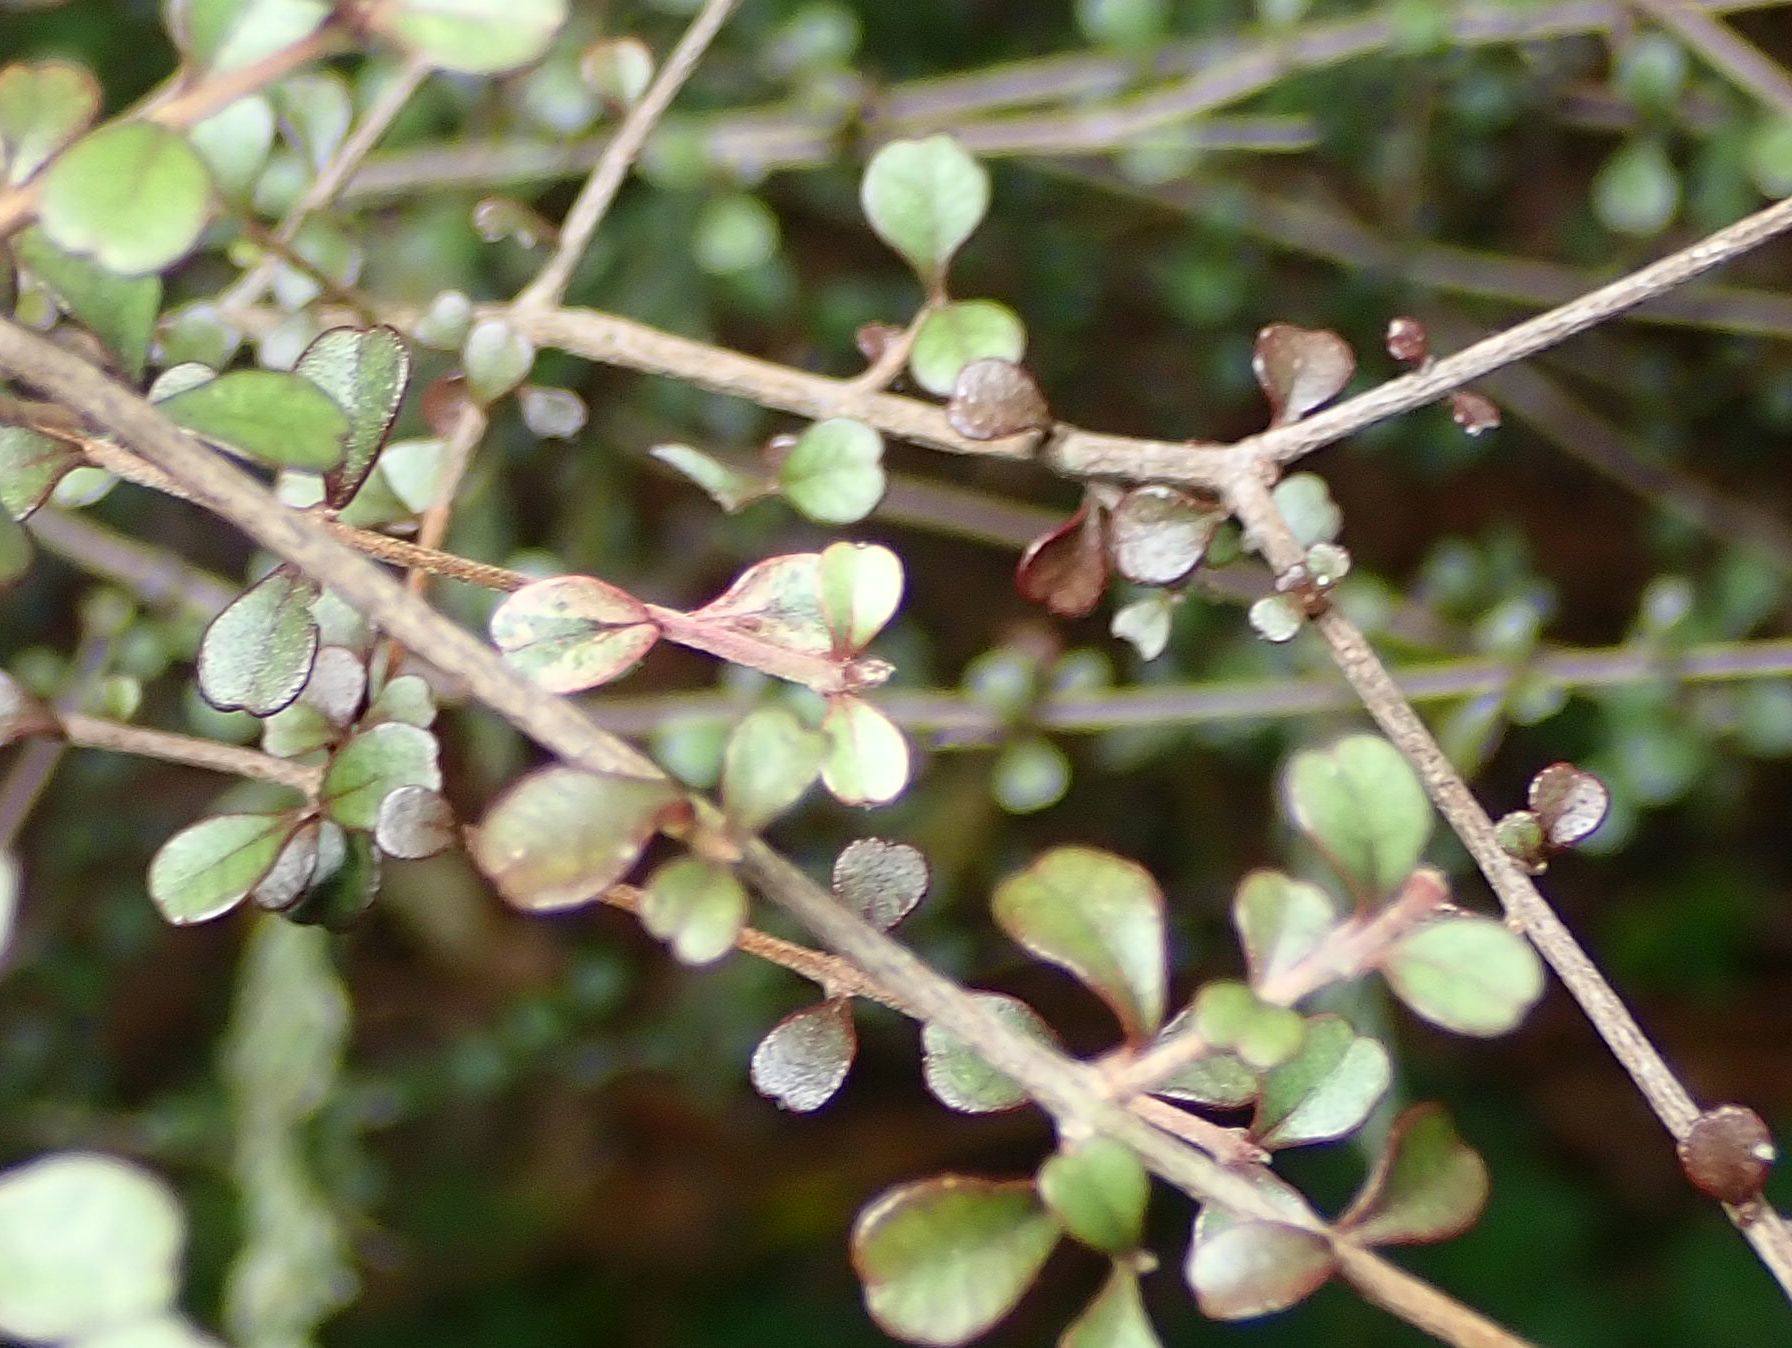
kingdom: Plantae
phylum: Tracheophyta
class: Magnoliopsida
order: Myrtales
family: Myrtaceae
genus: Lophomyrtus
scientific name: Lophomyrtus obcordata
